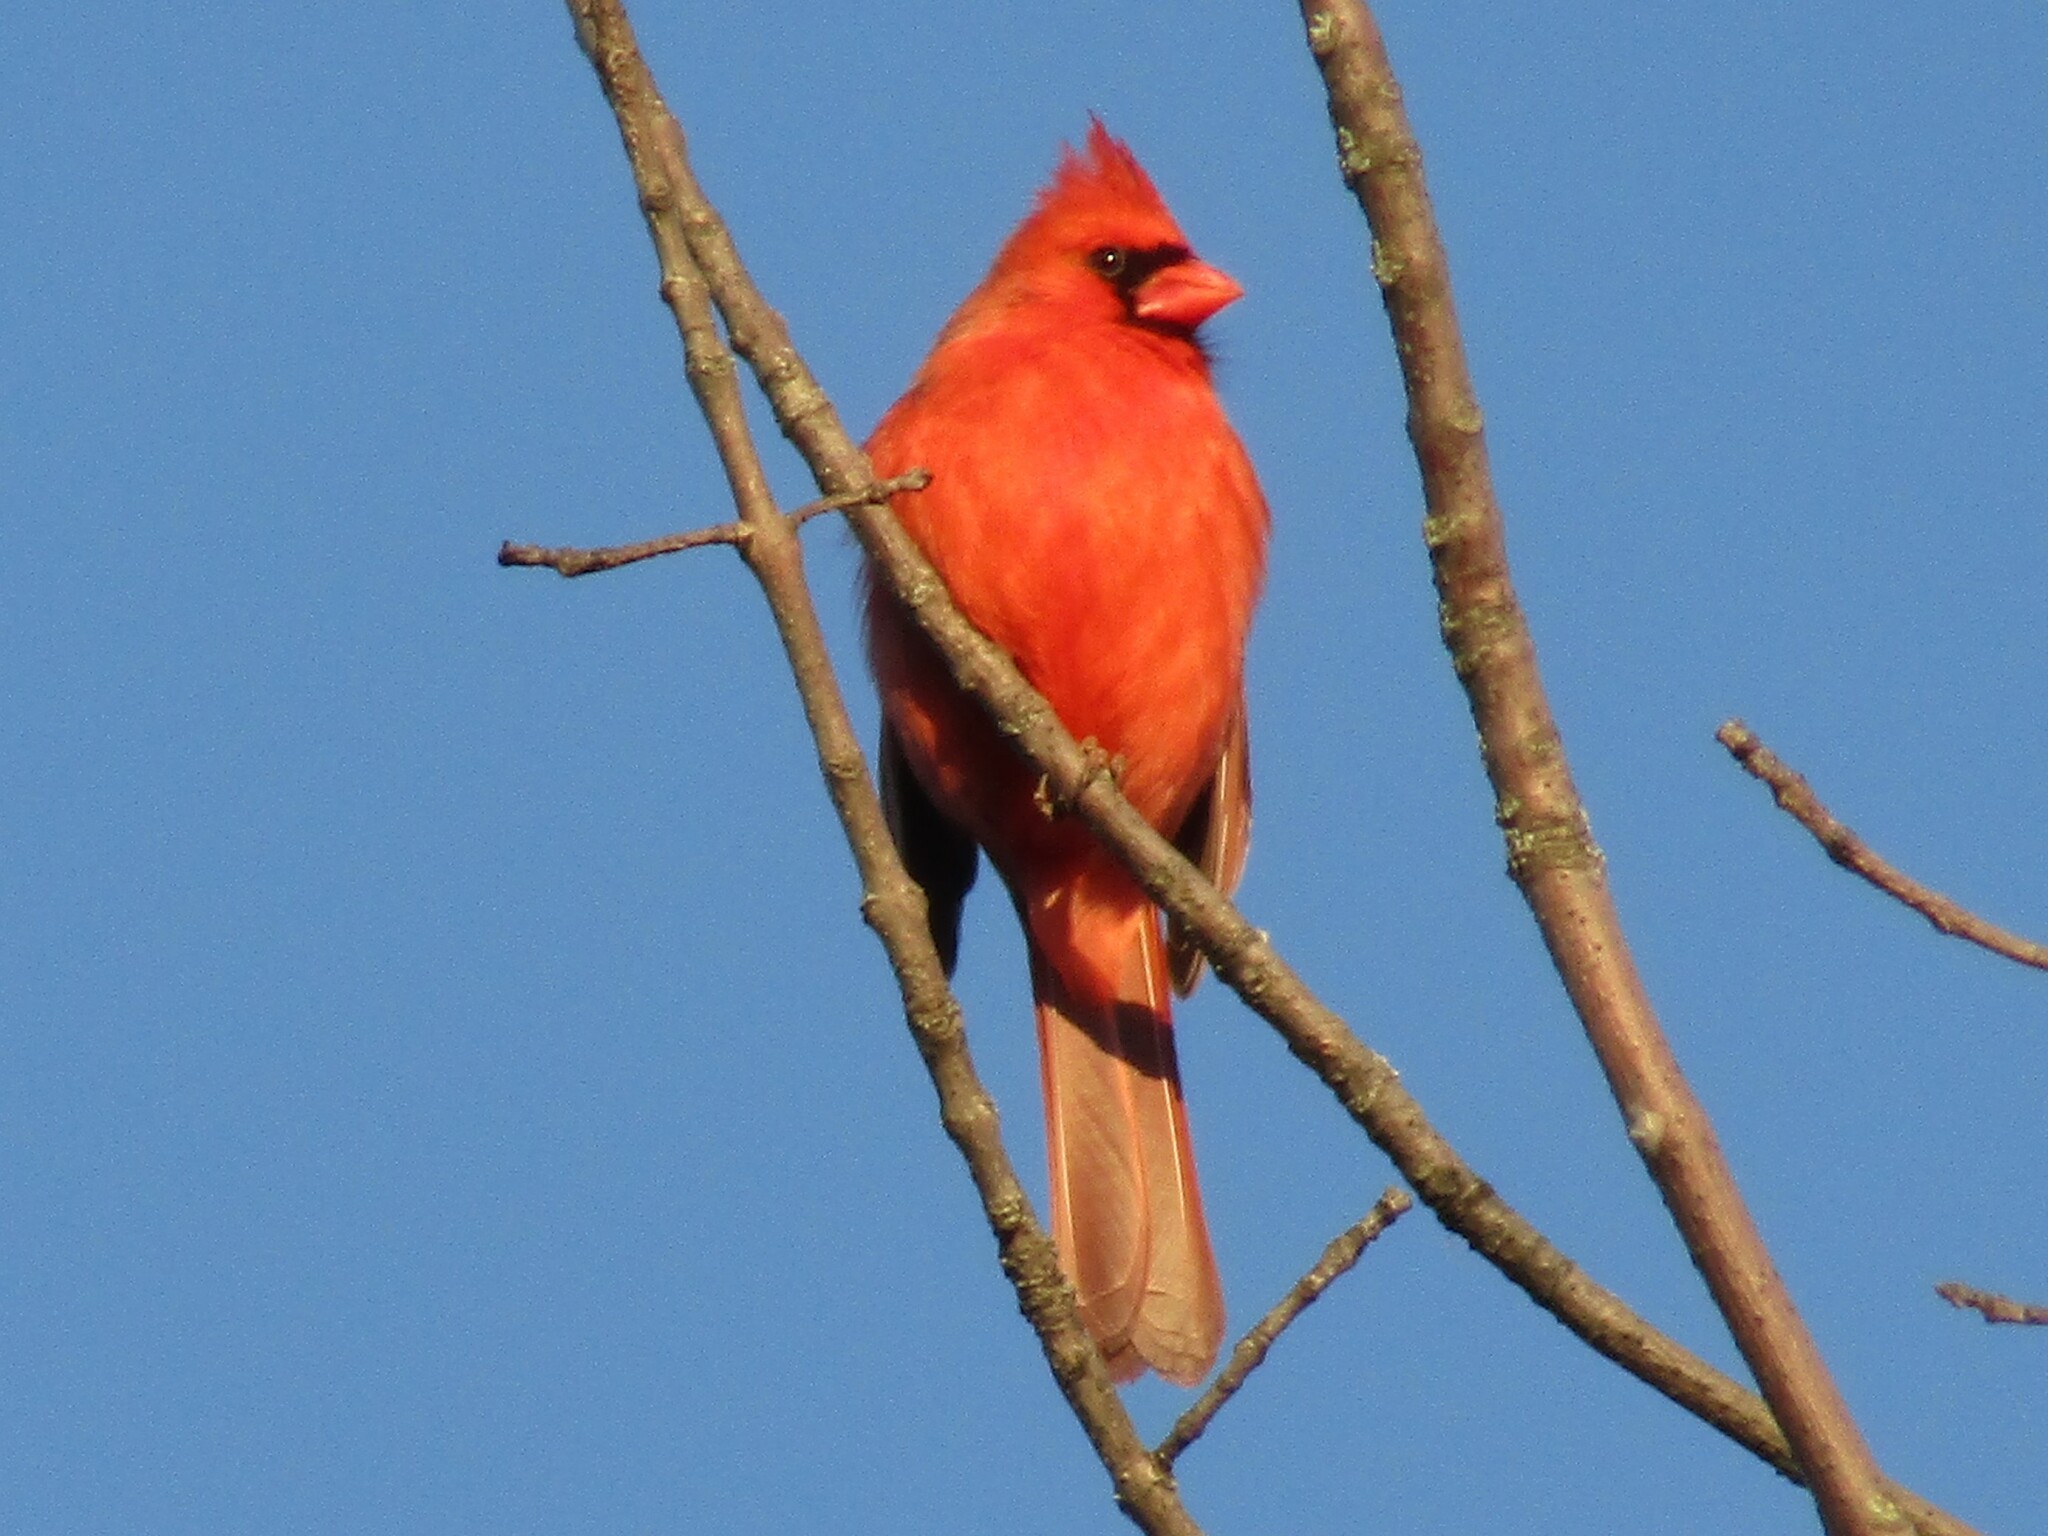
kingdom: Animalia
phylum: Chordata
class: Aves
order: Passeriformes
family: Cardinalidae
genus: Cardinalis
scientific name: Cardinalis cardinalis
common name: Northern cardinal
